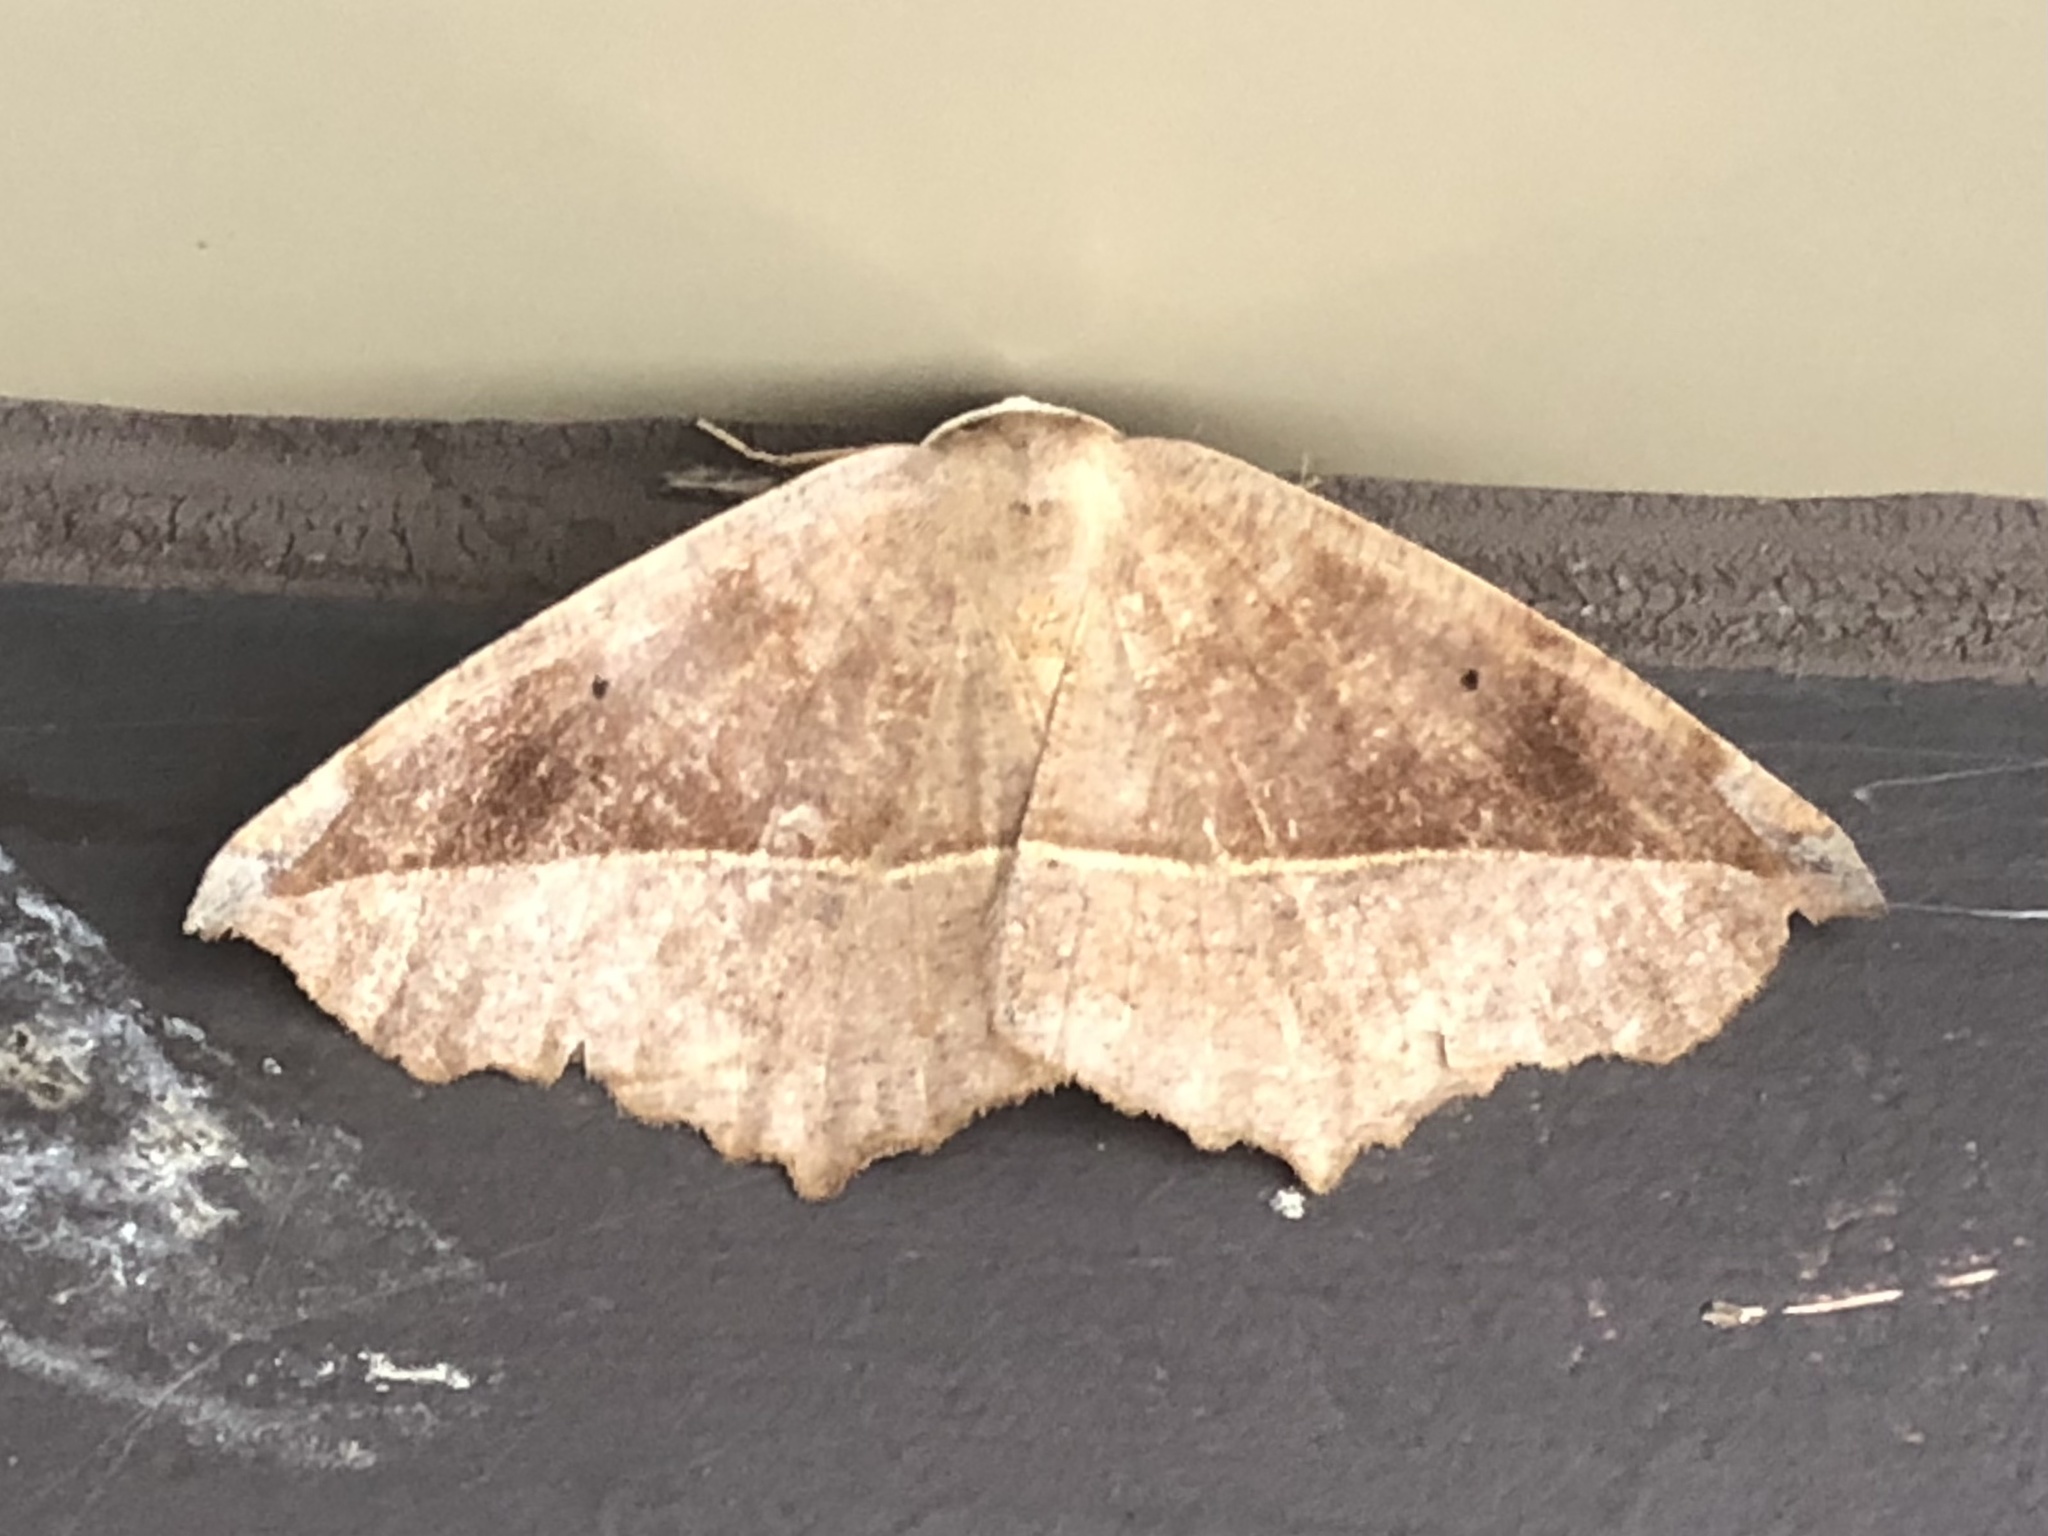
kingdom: Animalia
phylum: Arthropoda
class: Insecta
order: Lepidoptera
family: Geometridae
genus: Eutrapela
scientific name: Eutrapela clemataria
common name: Curved-toothed geometer
